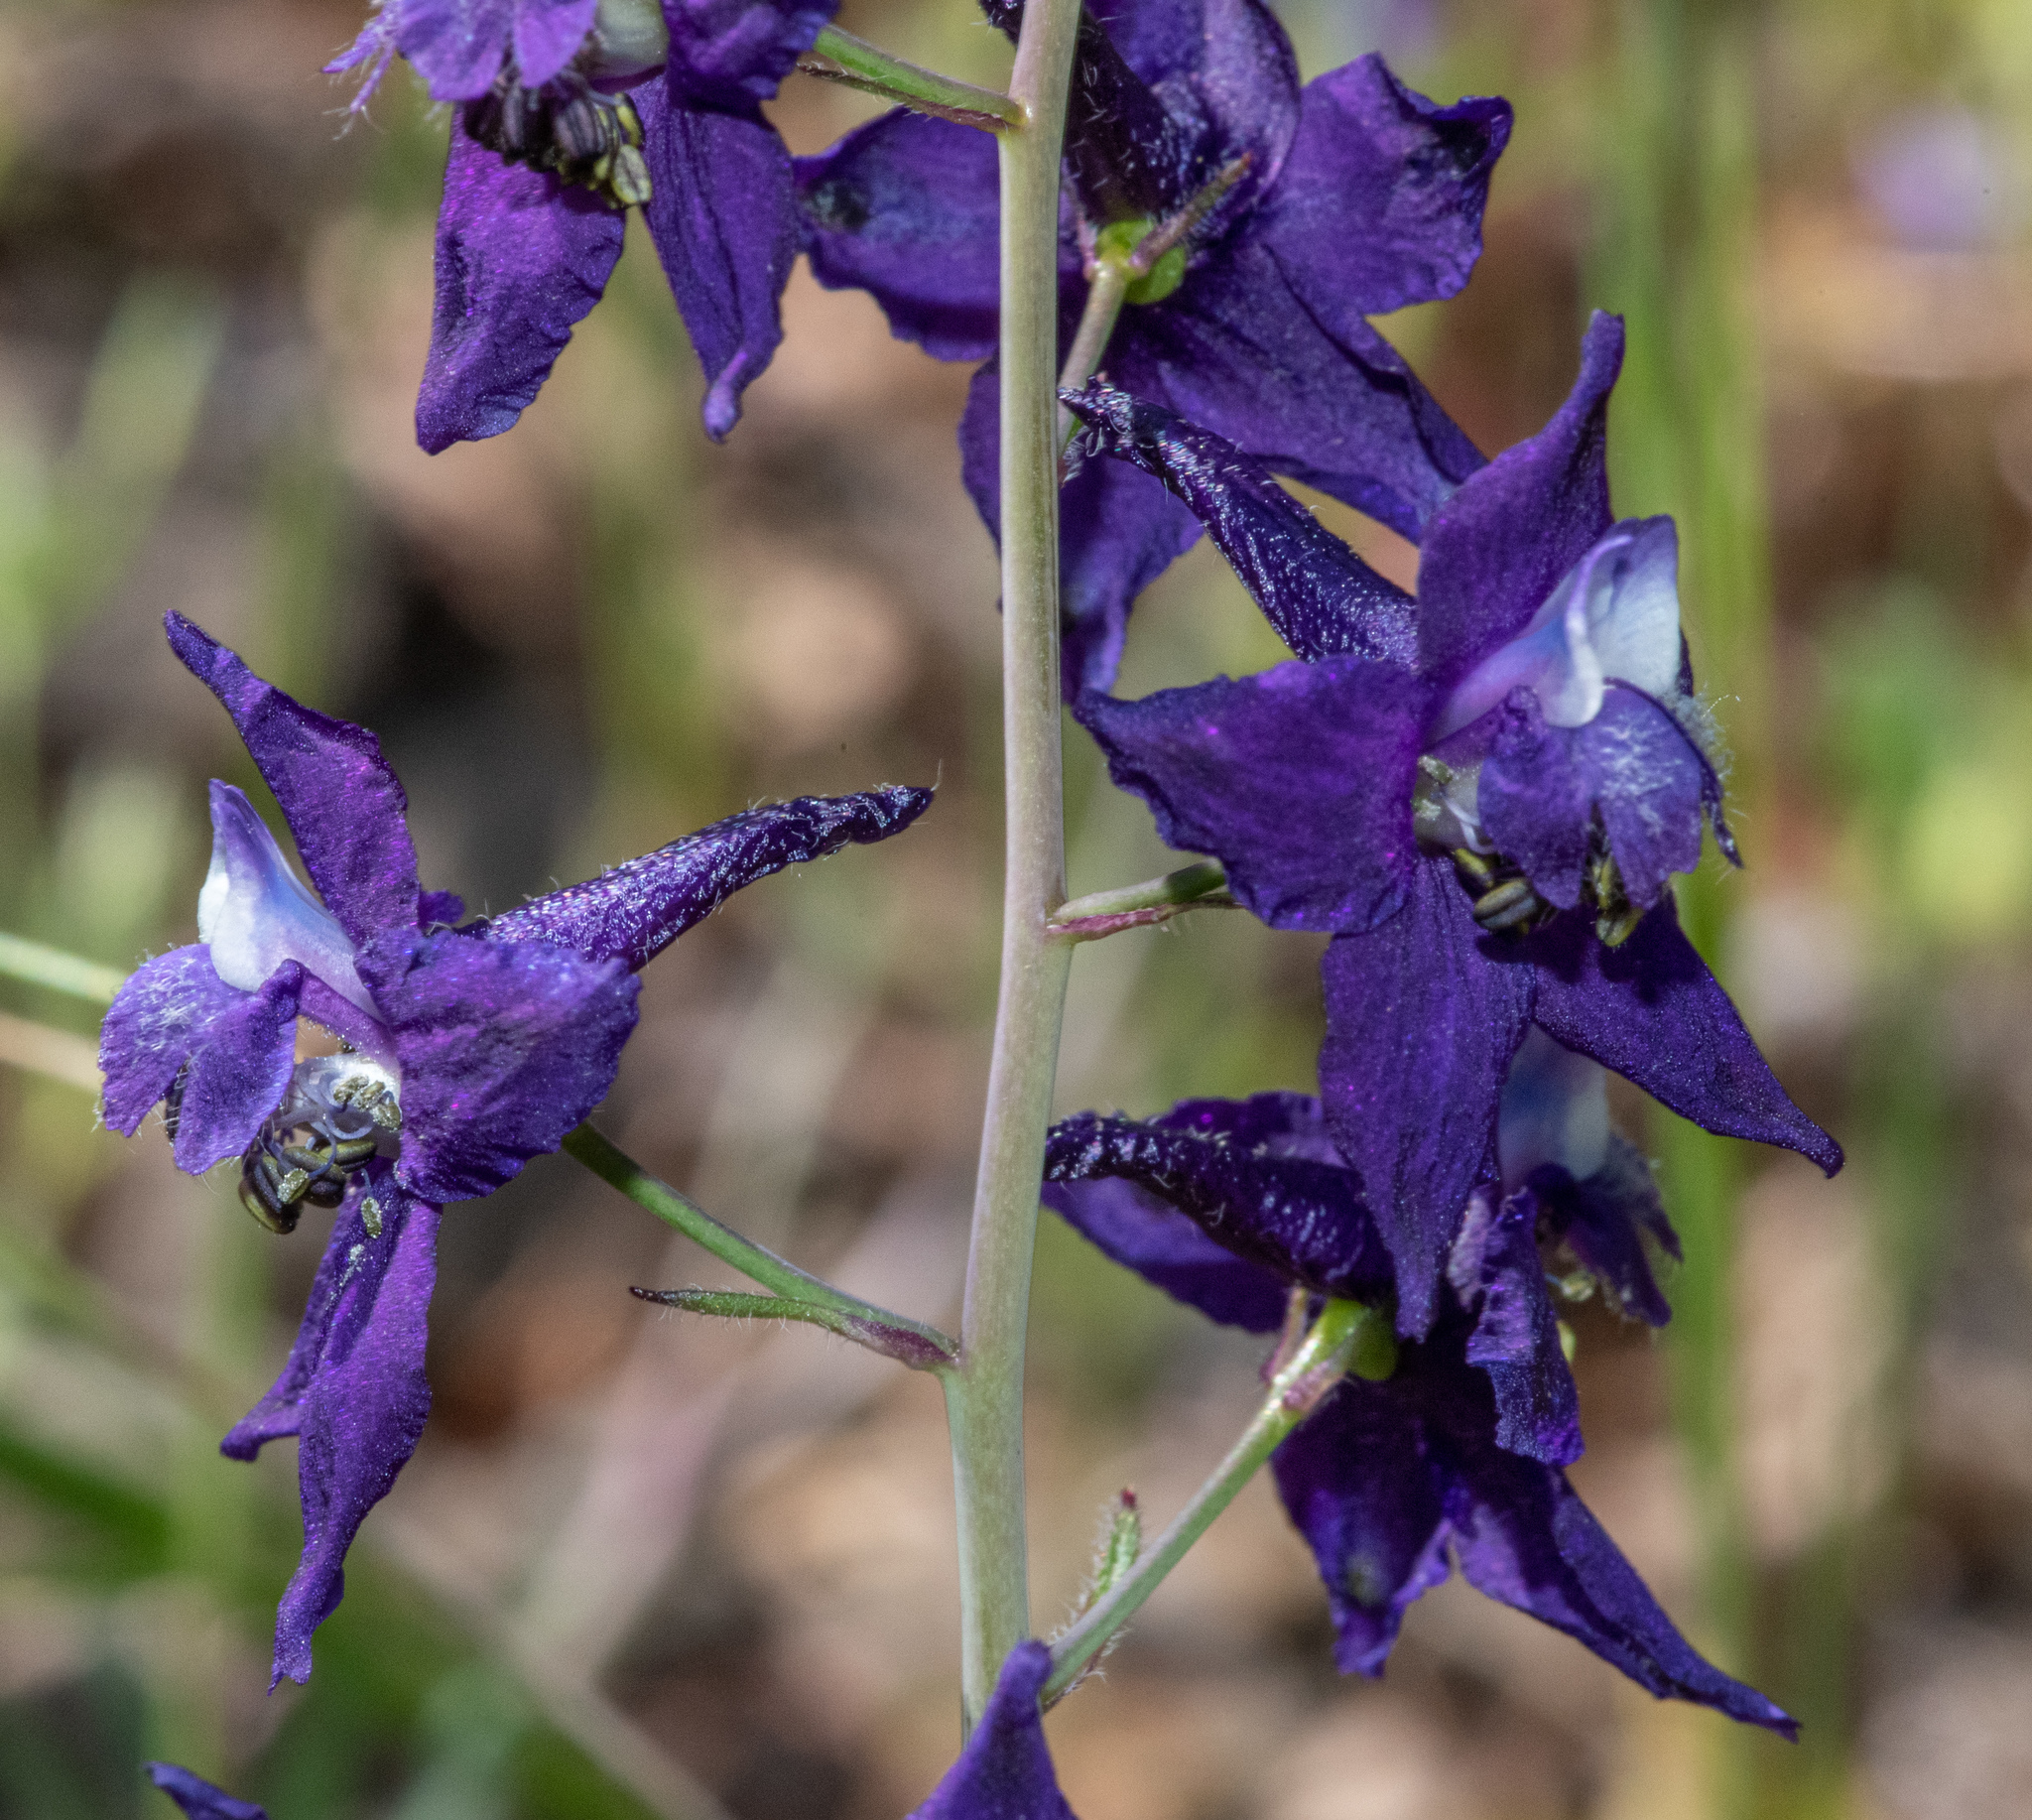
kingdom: Plantae
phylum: Tracheophyta
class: Magnoliopsida
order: Ranunculales
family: Ranunculaceae
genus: Delphinium
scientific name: Delphinium patens
